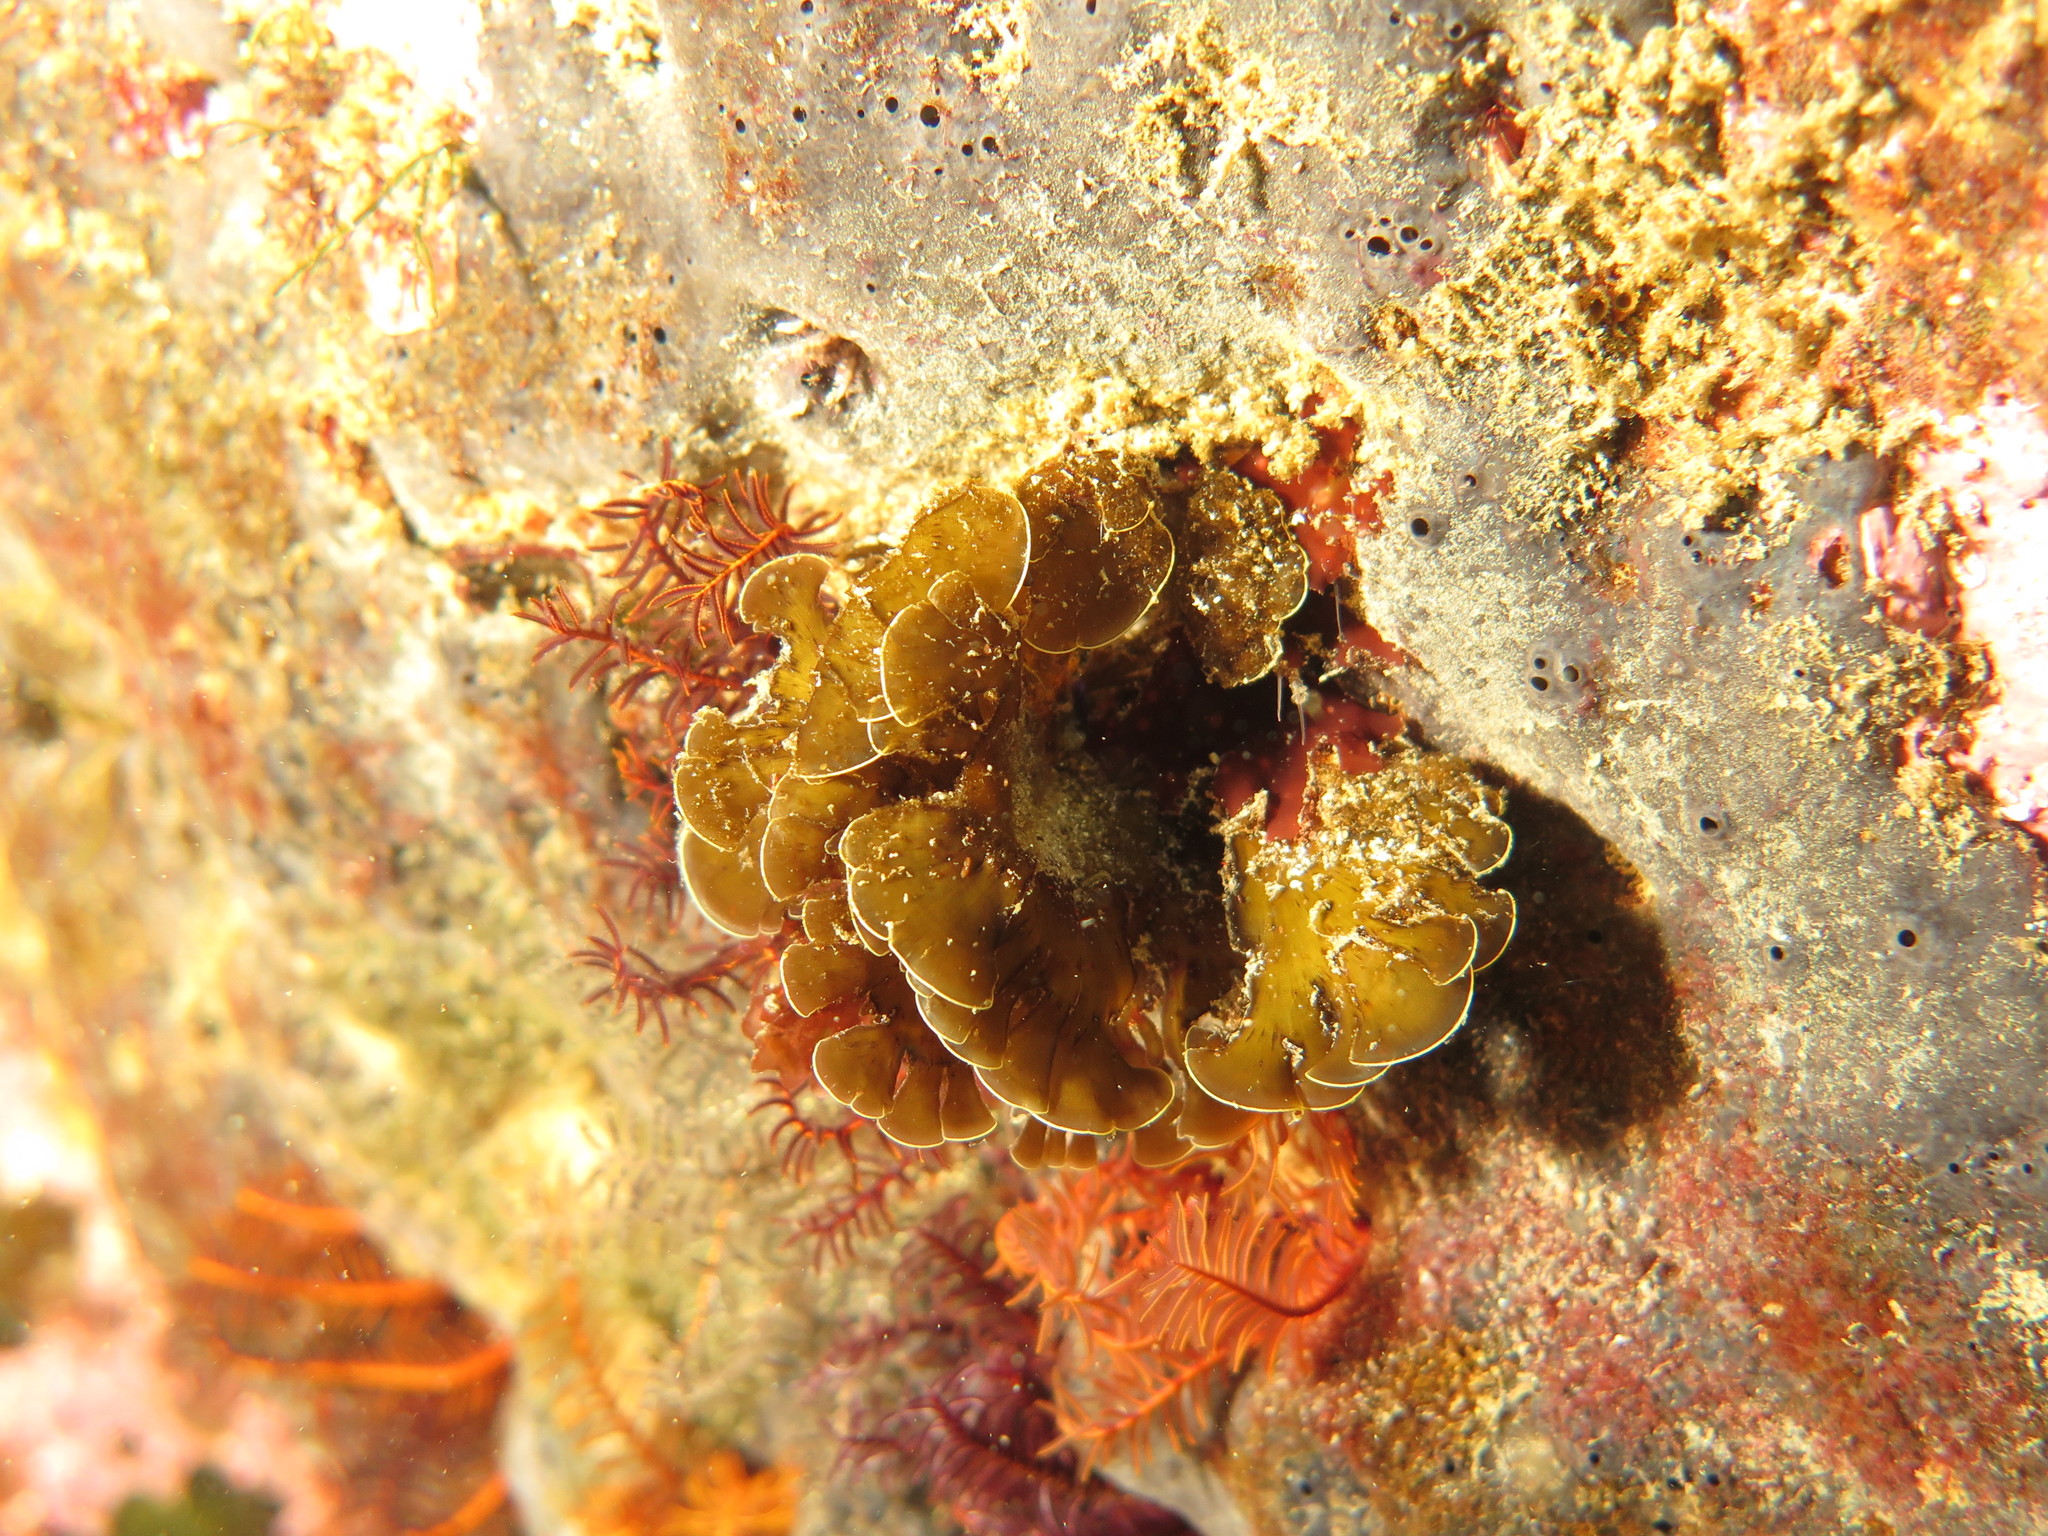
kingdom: Chromista
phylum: Ochrophyta
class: Phaeophyceae
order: Dictyotales
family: Dictyotaceae
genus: Exallosorus
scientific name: Exallosorus
